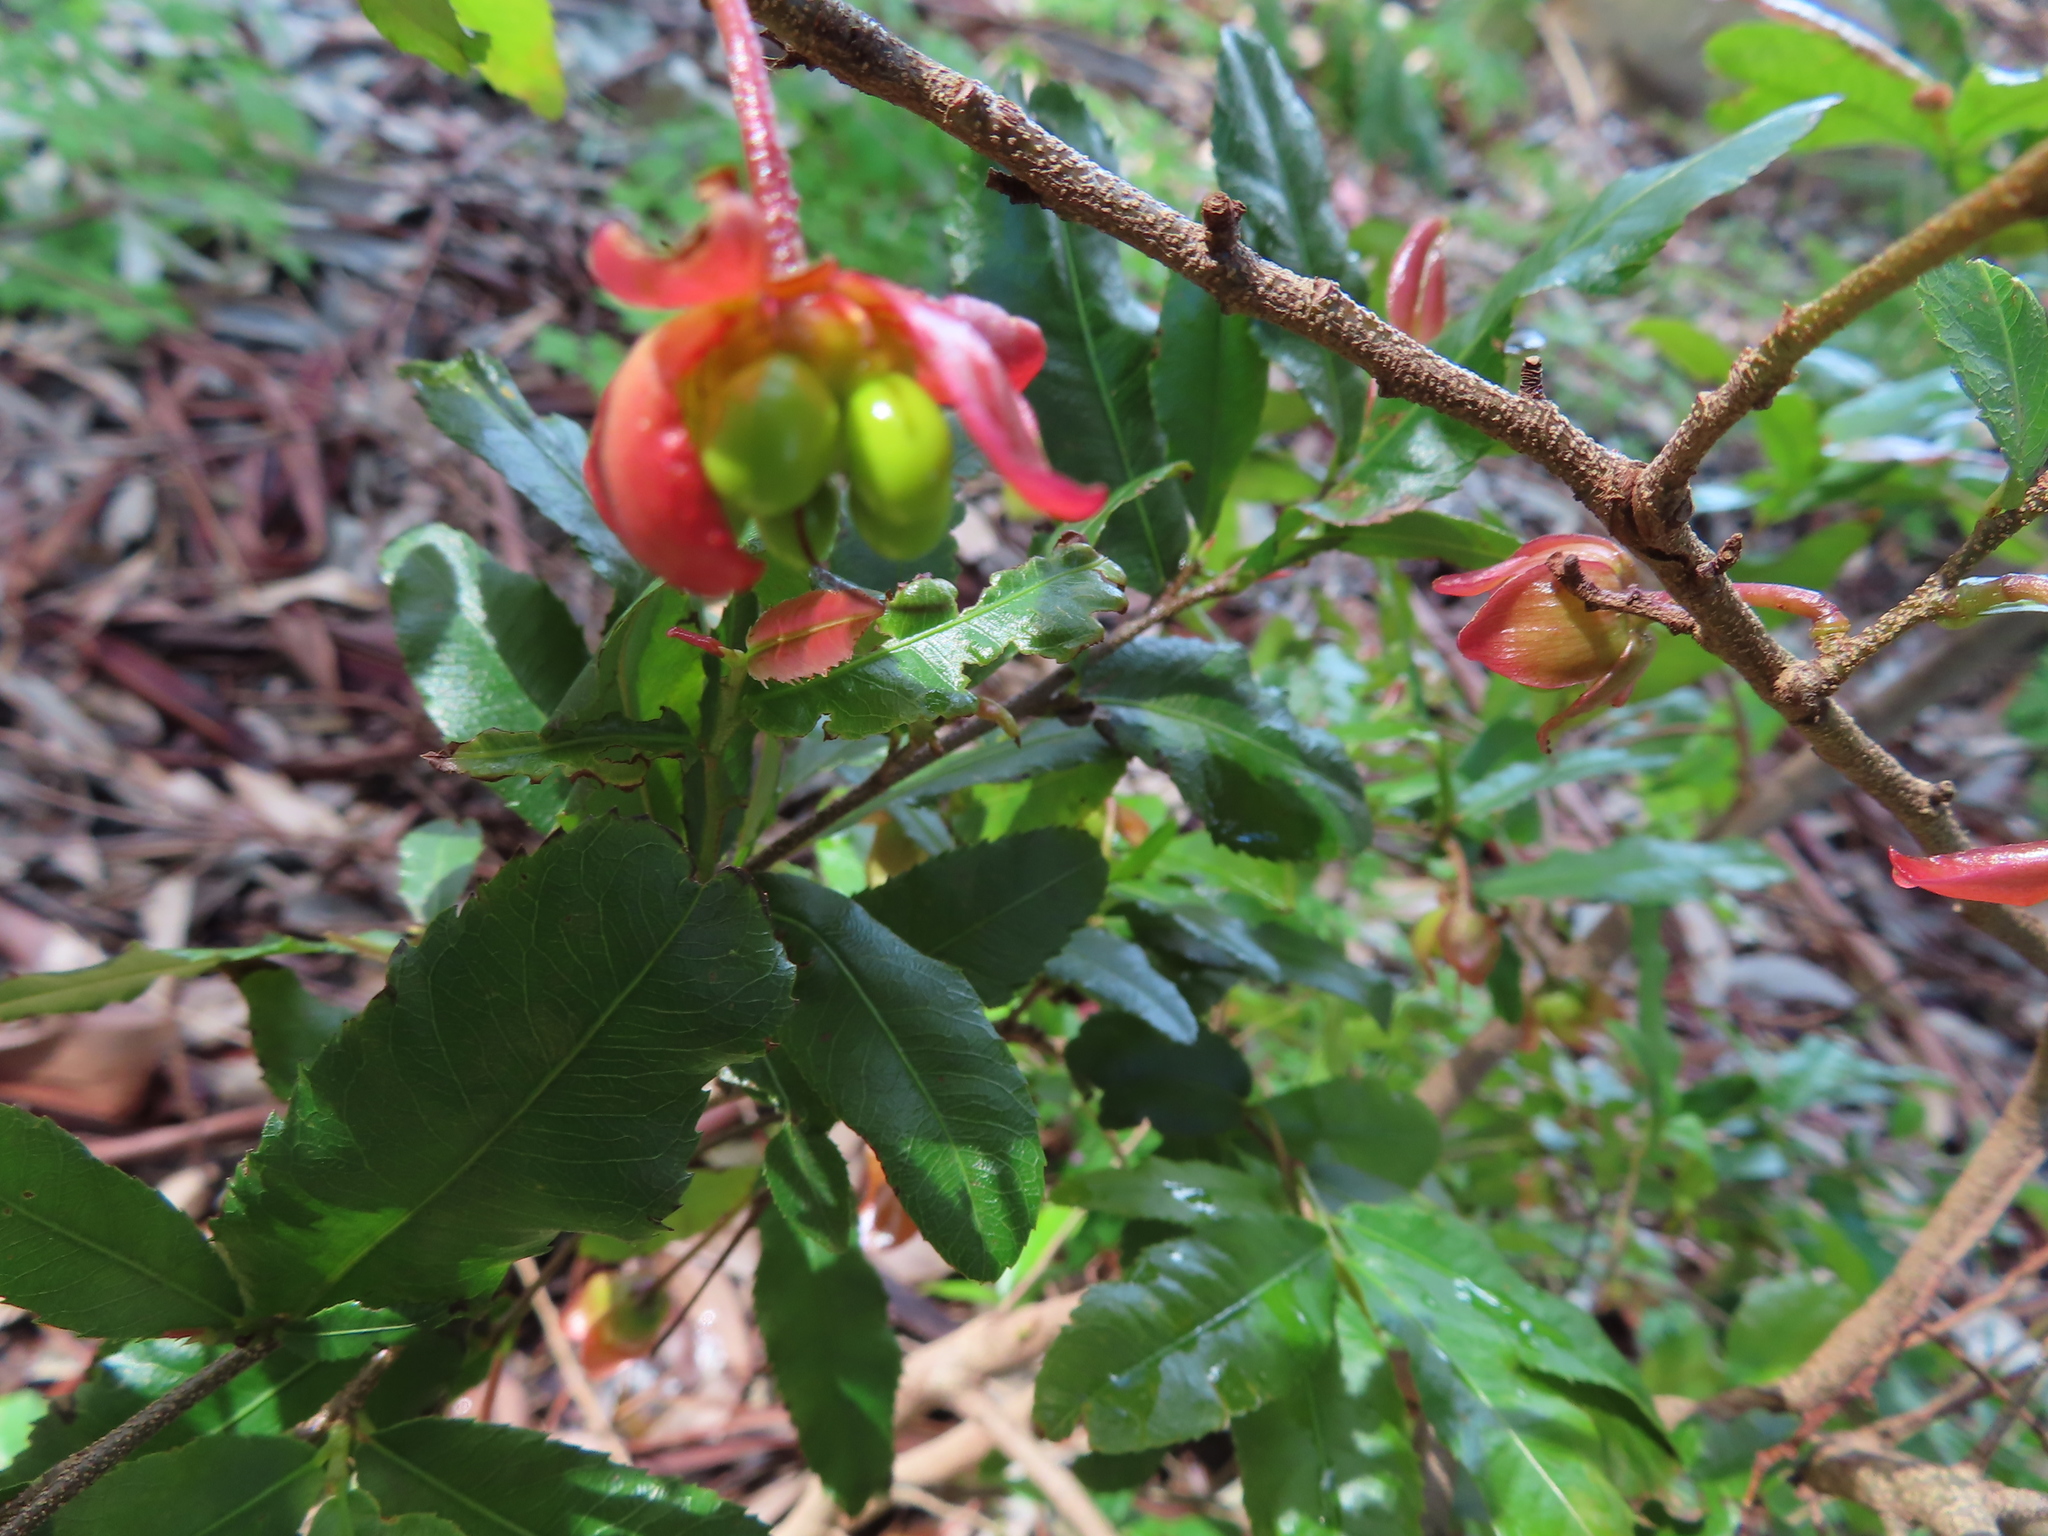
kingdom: Plantae
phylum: Tracheophyta
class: Magnoliopsida
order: Malpighiales
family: Ochnaceae
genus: Ochna
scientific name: Ochna serrulata
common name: Mickey mouse plant
